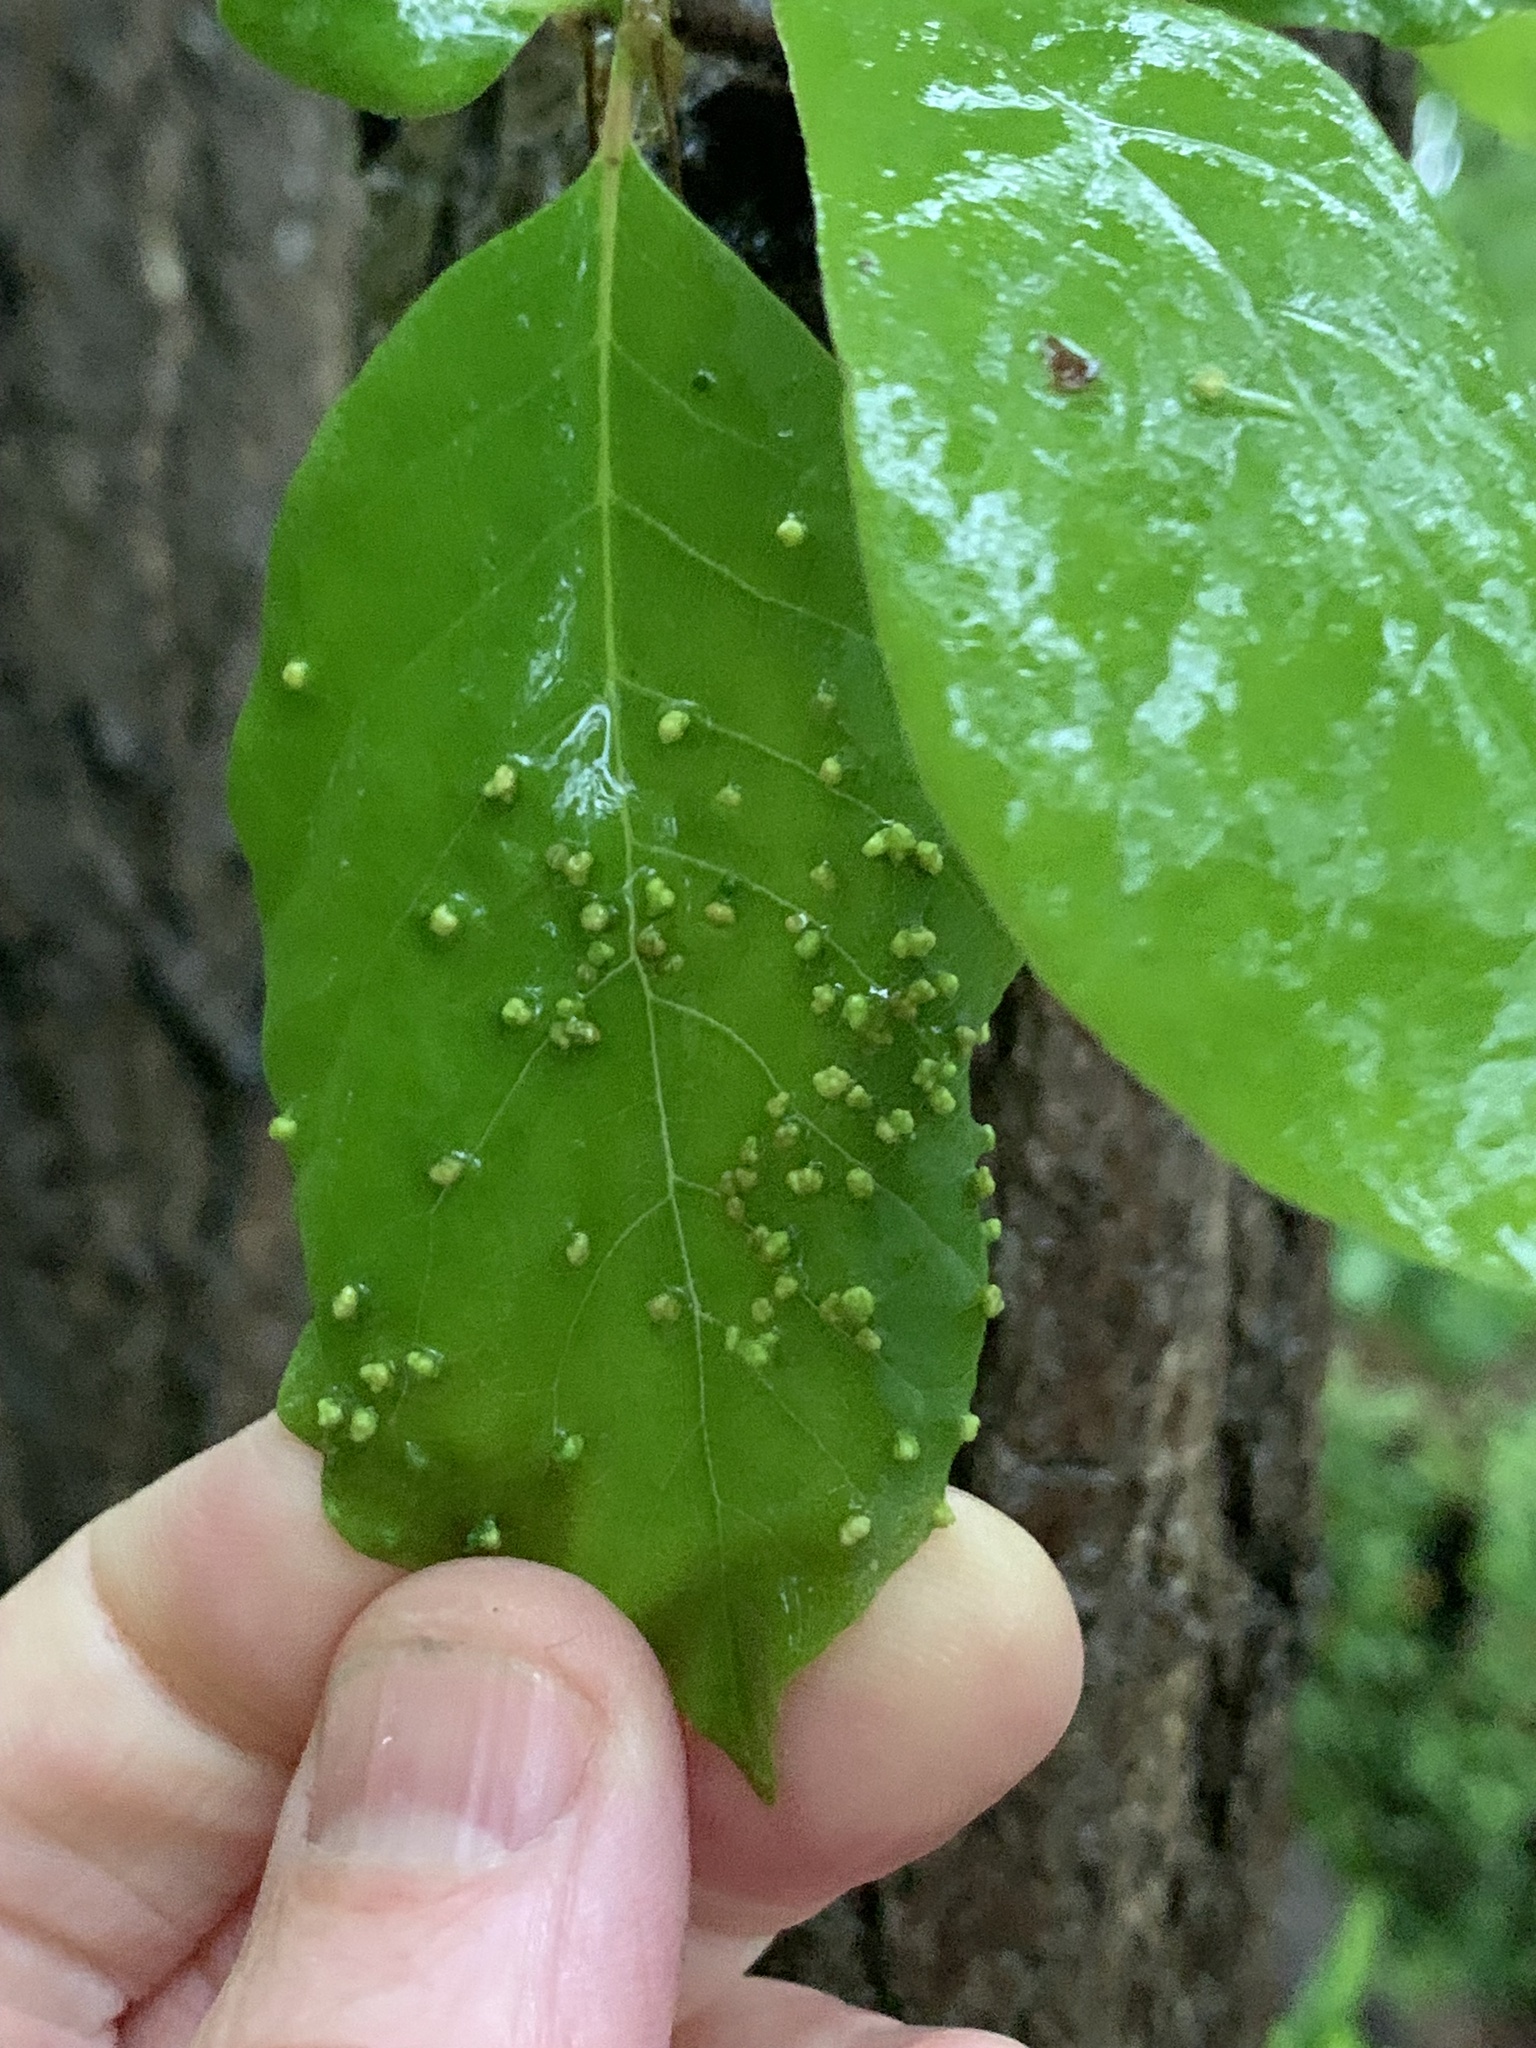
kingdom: Animalia
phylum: Arthropoda
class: Arachnida
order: Trombidiformes
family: Eriophyidae
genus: Aceria
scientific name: Aceria
